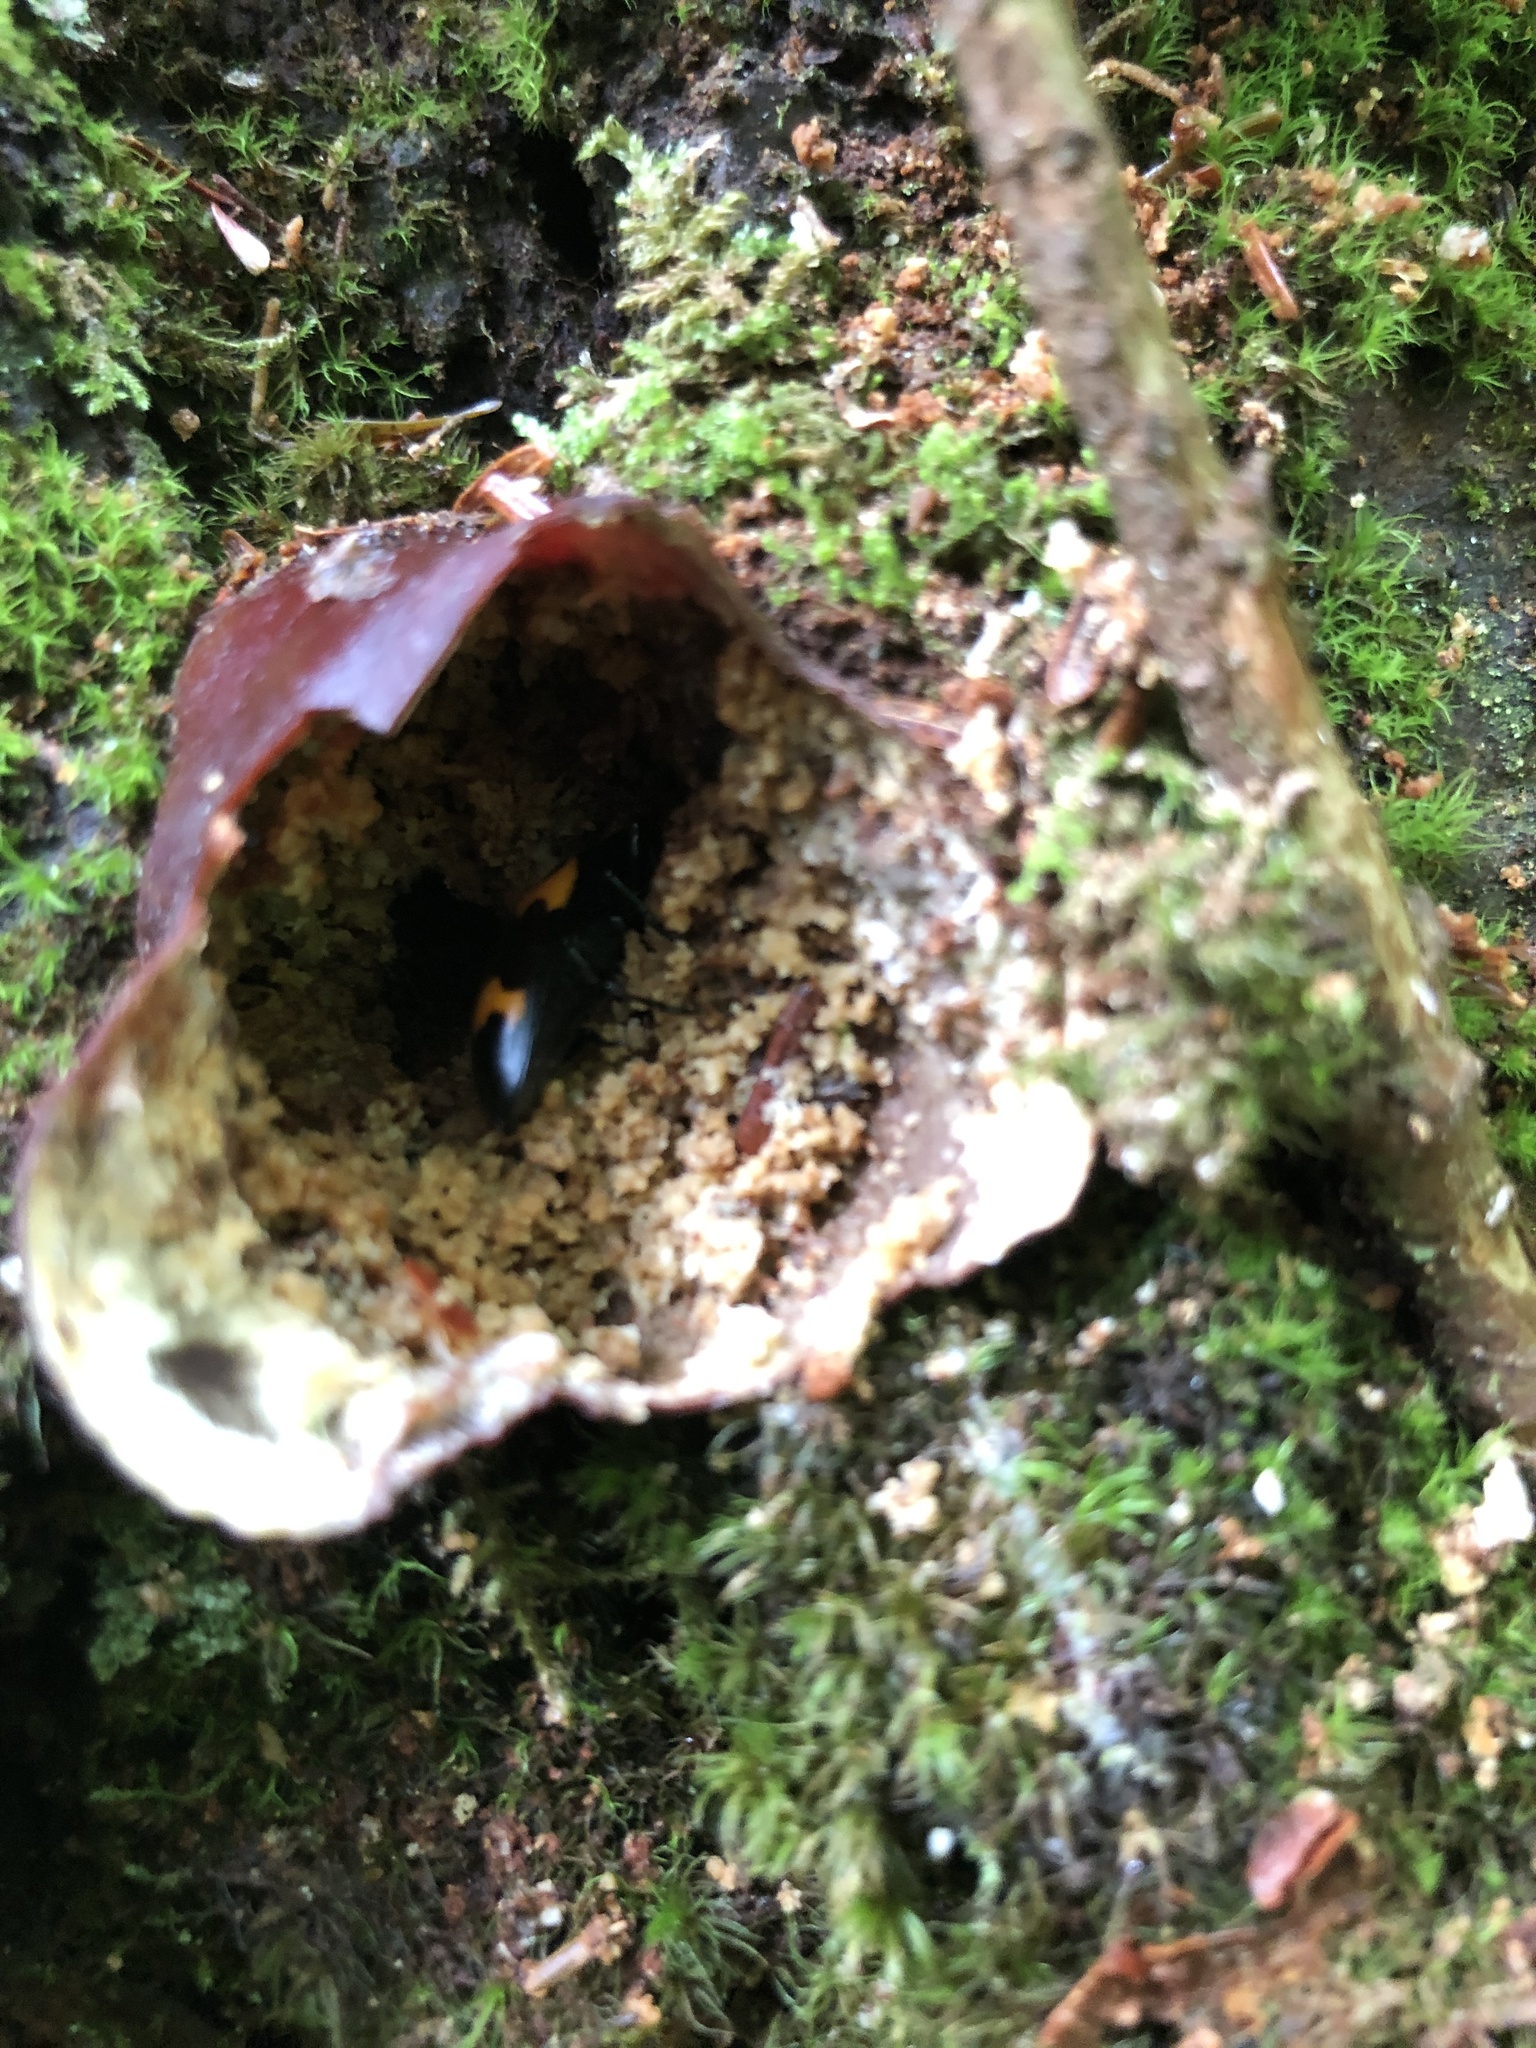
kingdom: Animalia
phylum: Arthropoda
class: Insecta
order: Coleoptera
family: Erotylidae
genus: Megalodacne
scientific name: Megalodacne heros
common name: Pleasing fungus beetle
